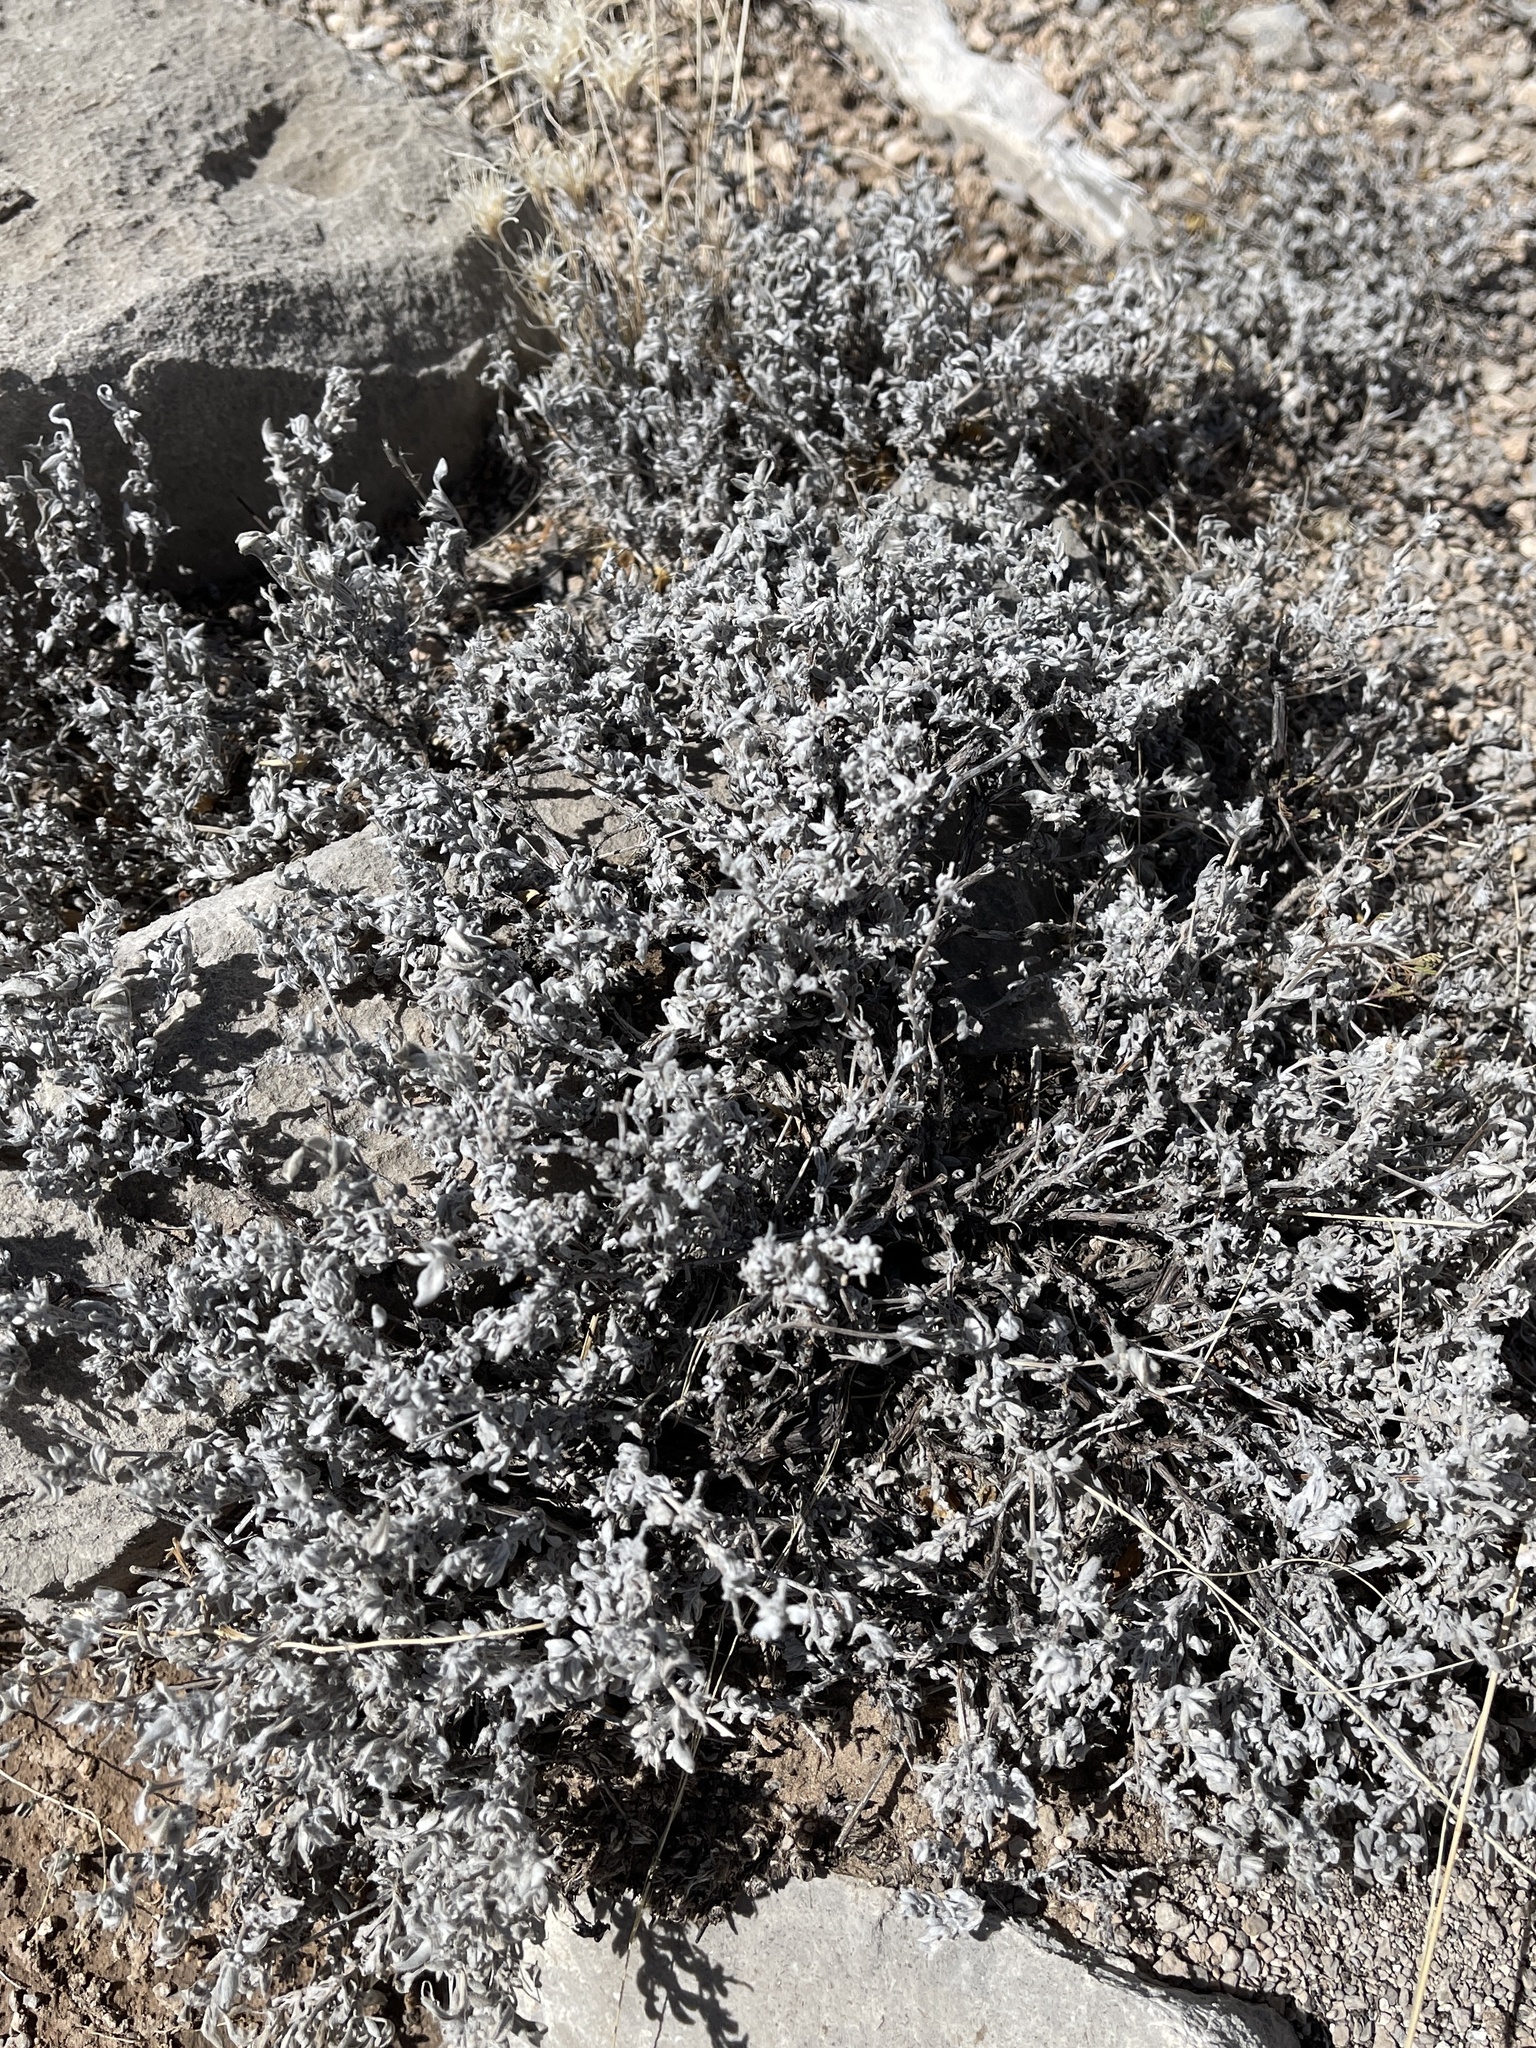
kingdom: Plantae
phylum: Tracheophyta
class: Magnoliopsida
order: Boraginales
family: Ehretiaceae
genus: Tiquilia
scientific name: Tiquilia canescens
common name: Hairy tiquilia
